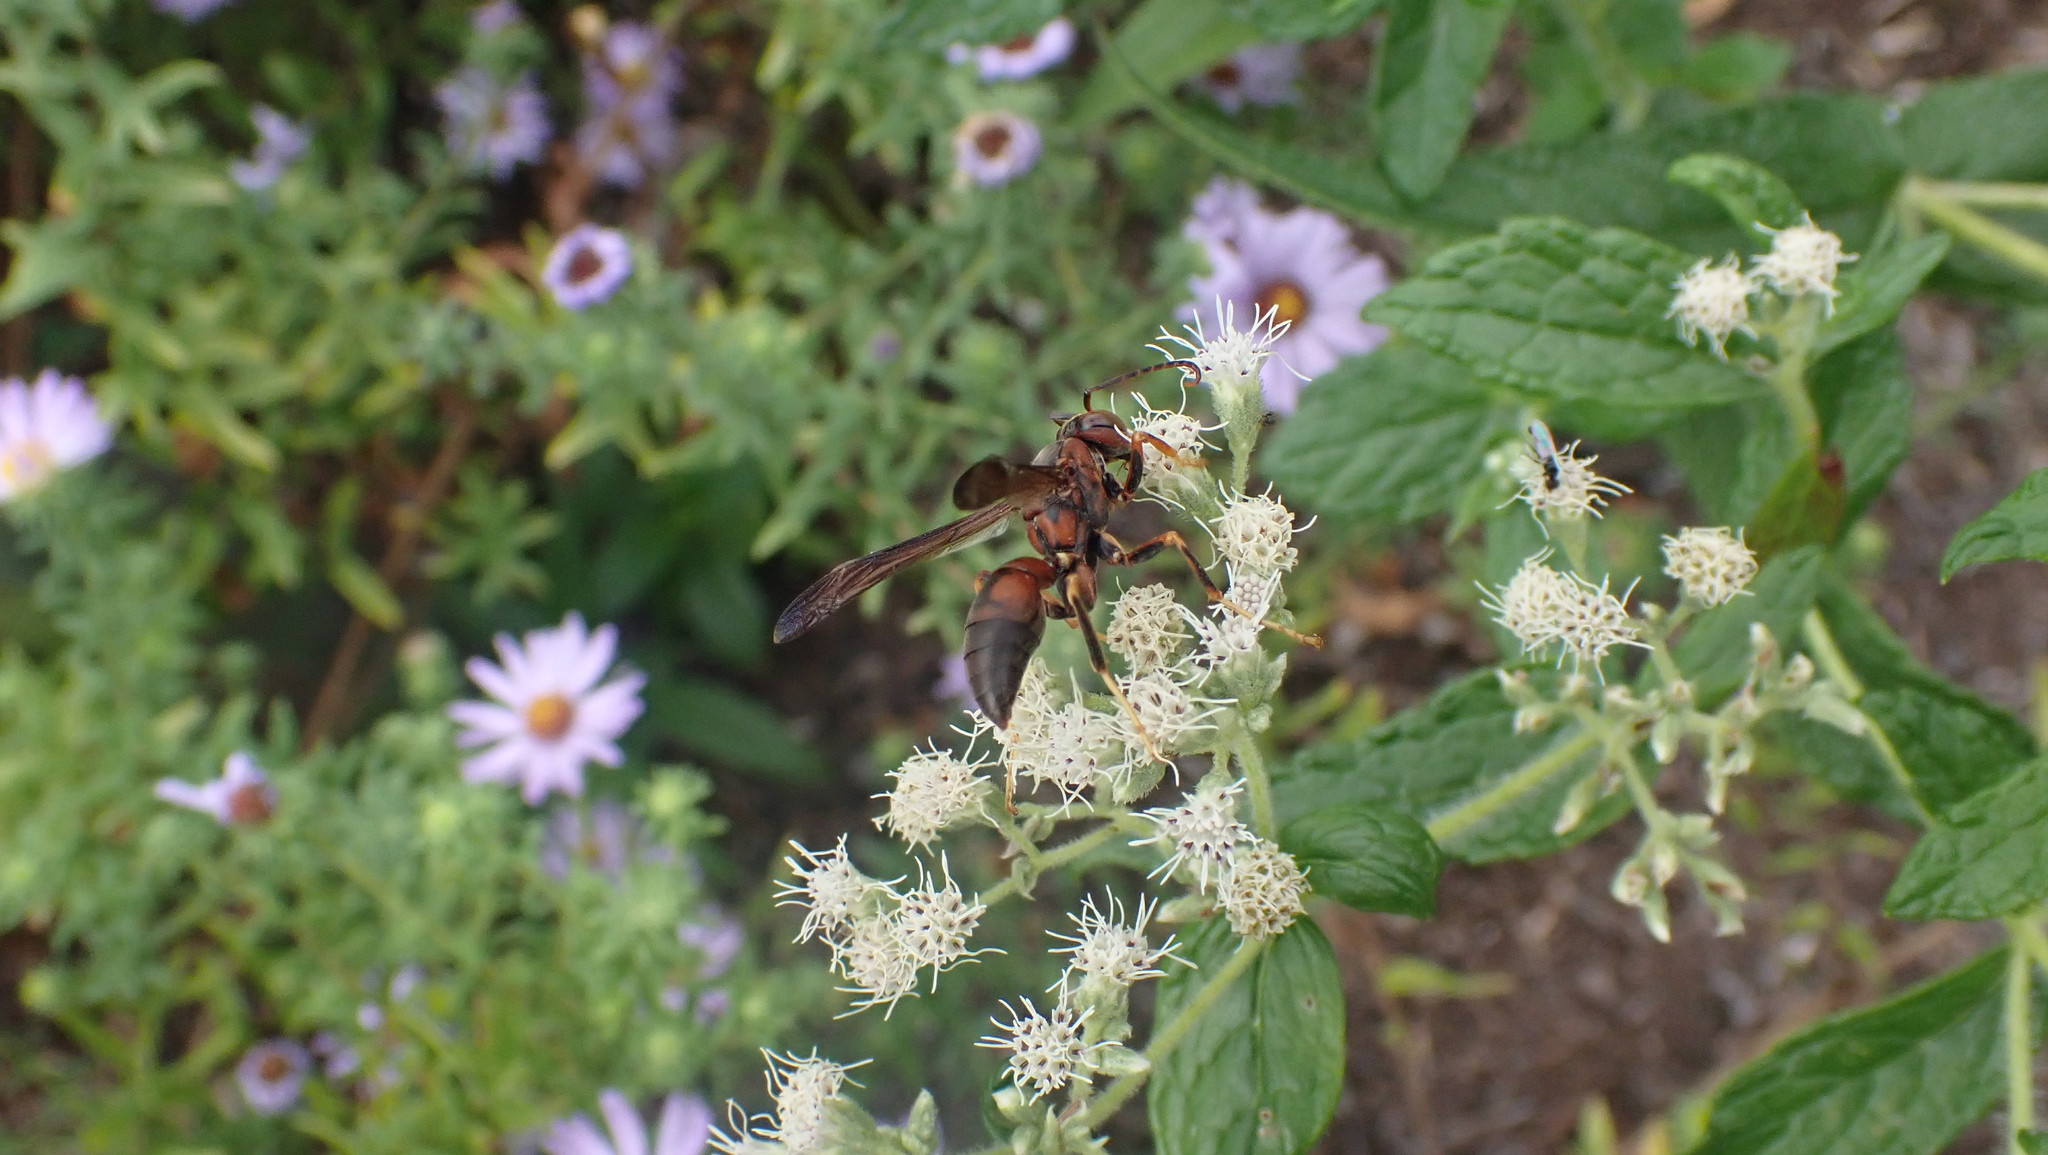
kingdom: Animalia
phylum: Arthropoda
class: Insecta
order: Hymenoptera
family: Eumenidae
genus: Polistes
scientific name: Polistes metricus
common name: Metric paper wasp
